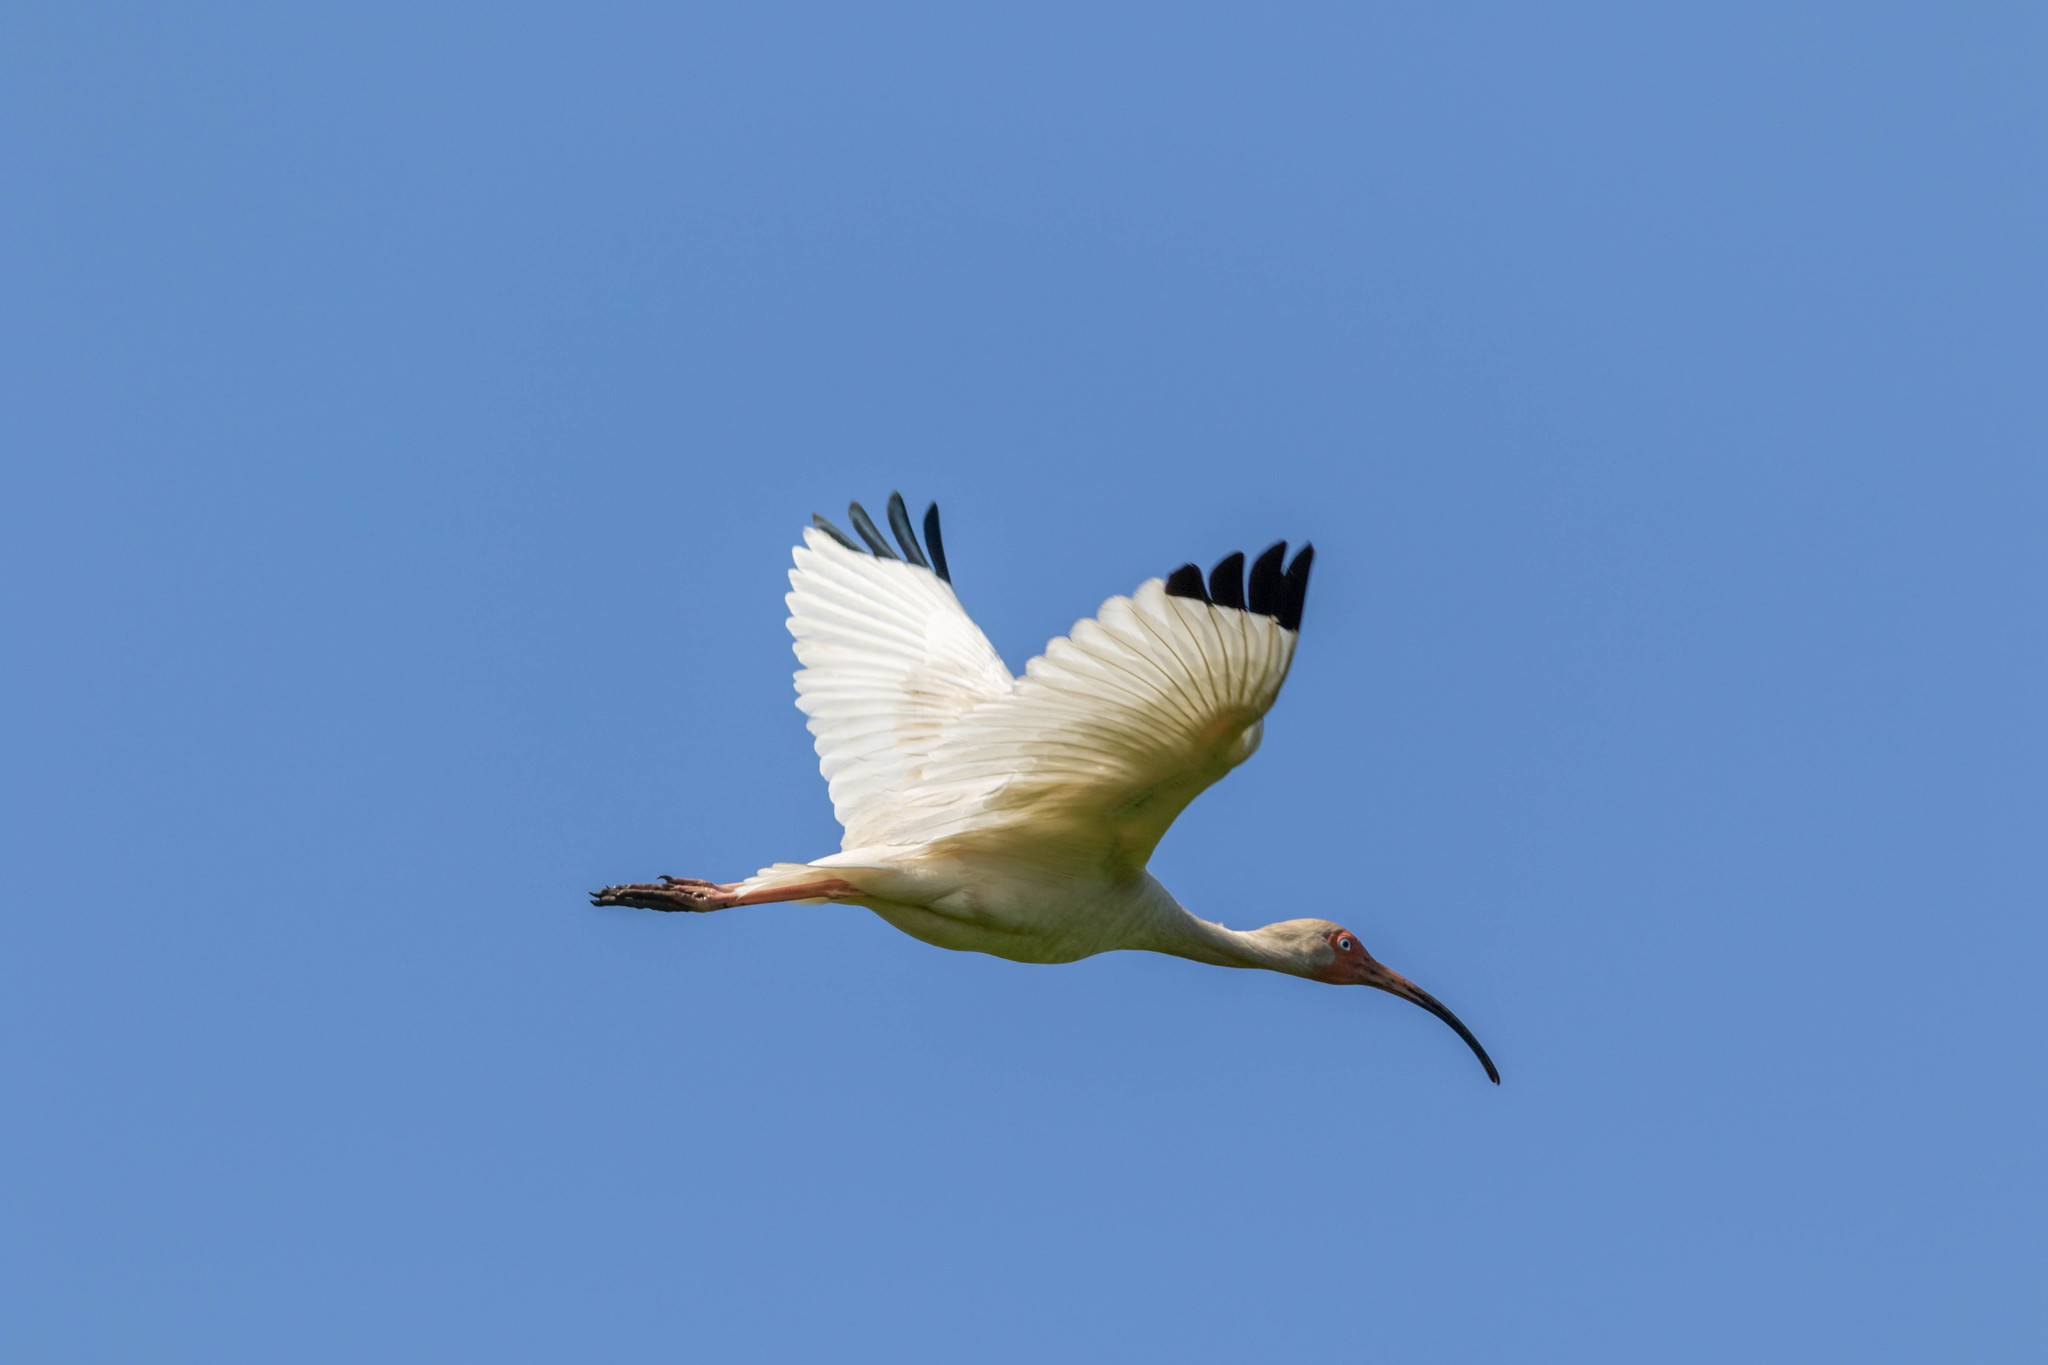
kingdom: Animalia
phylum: Chordata
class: Aves
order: Pelecaniformes
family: Threskiornithidae
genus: Eudocimus
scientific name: Eudocimus albus
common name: White ibis
